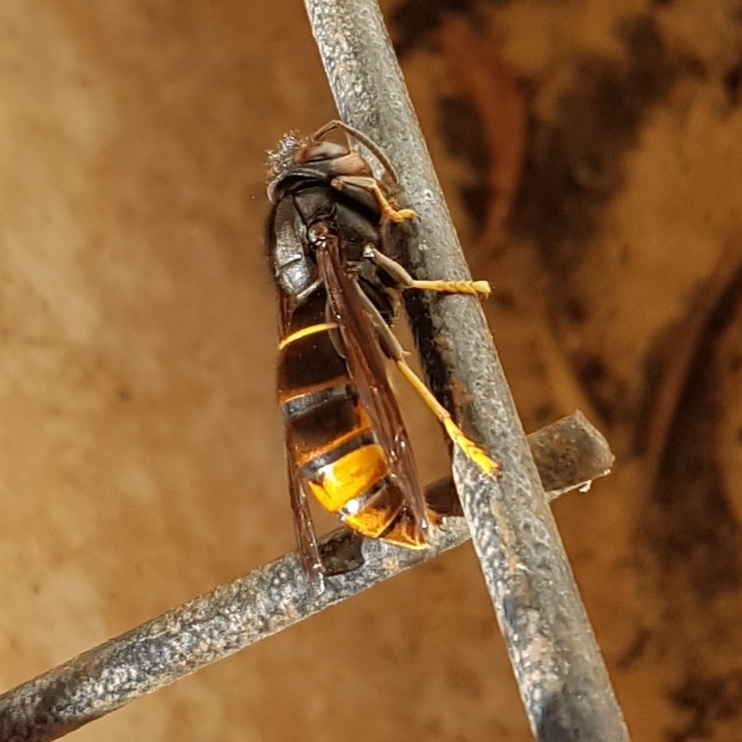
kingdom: Animalia
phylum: Arthropoda
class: Insecta
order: Hymenoptera
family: Vespidae
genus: Vespa
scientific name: Vespa velutina
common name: Asian hornet
